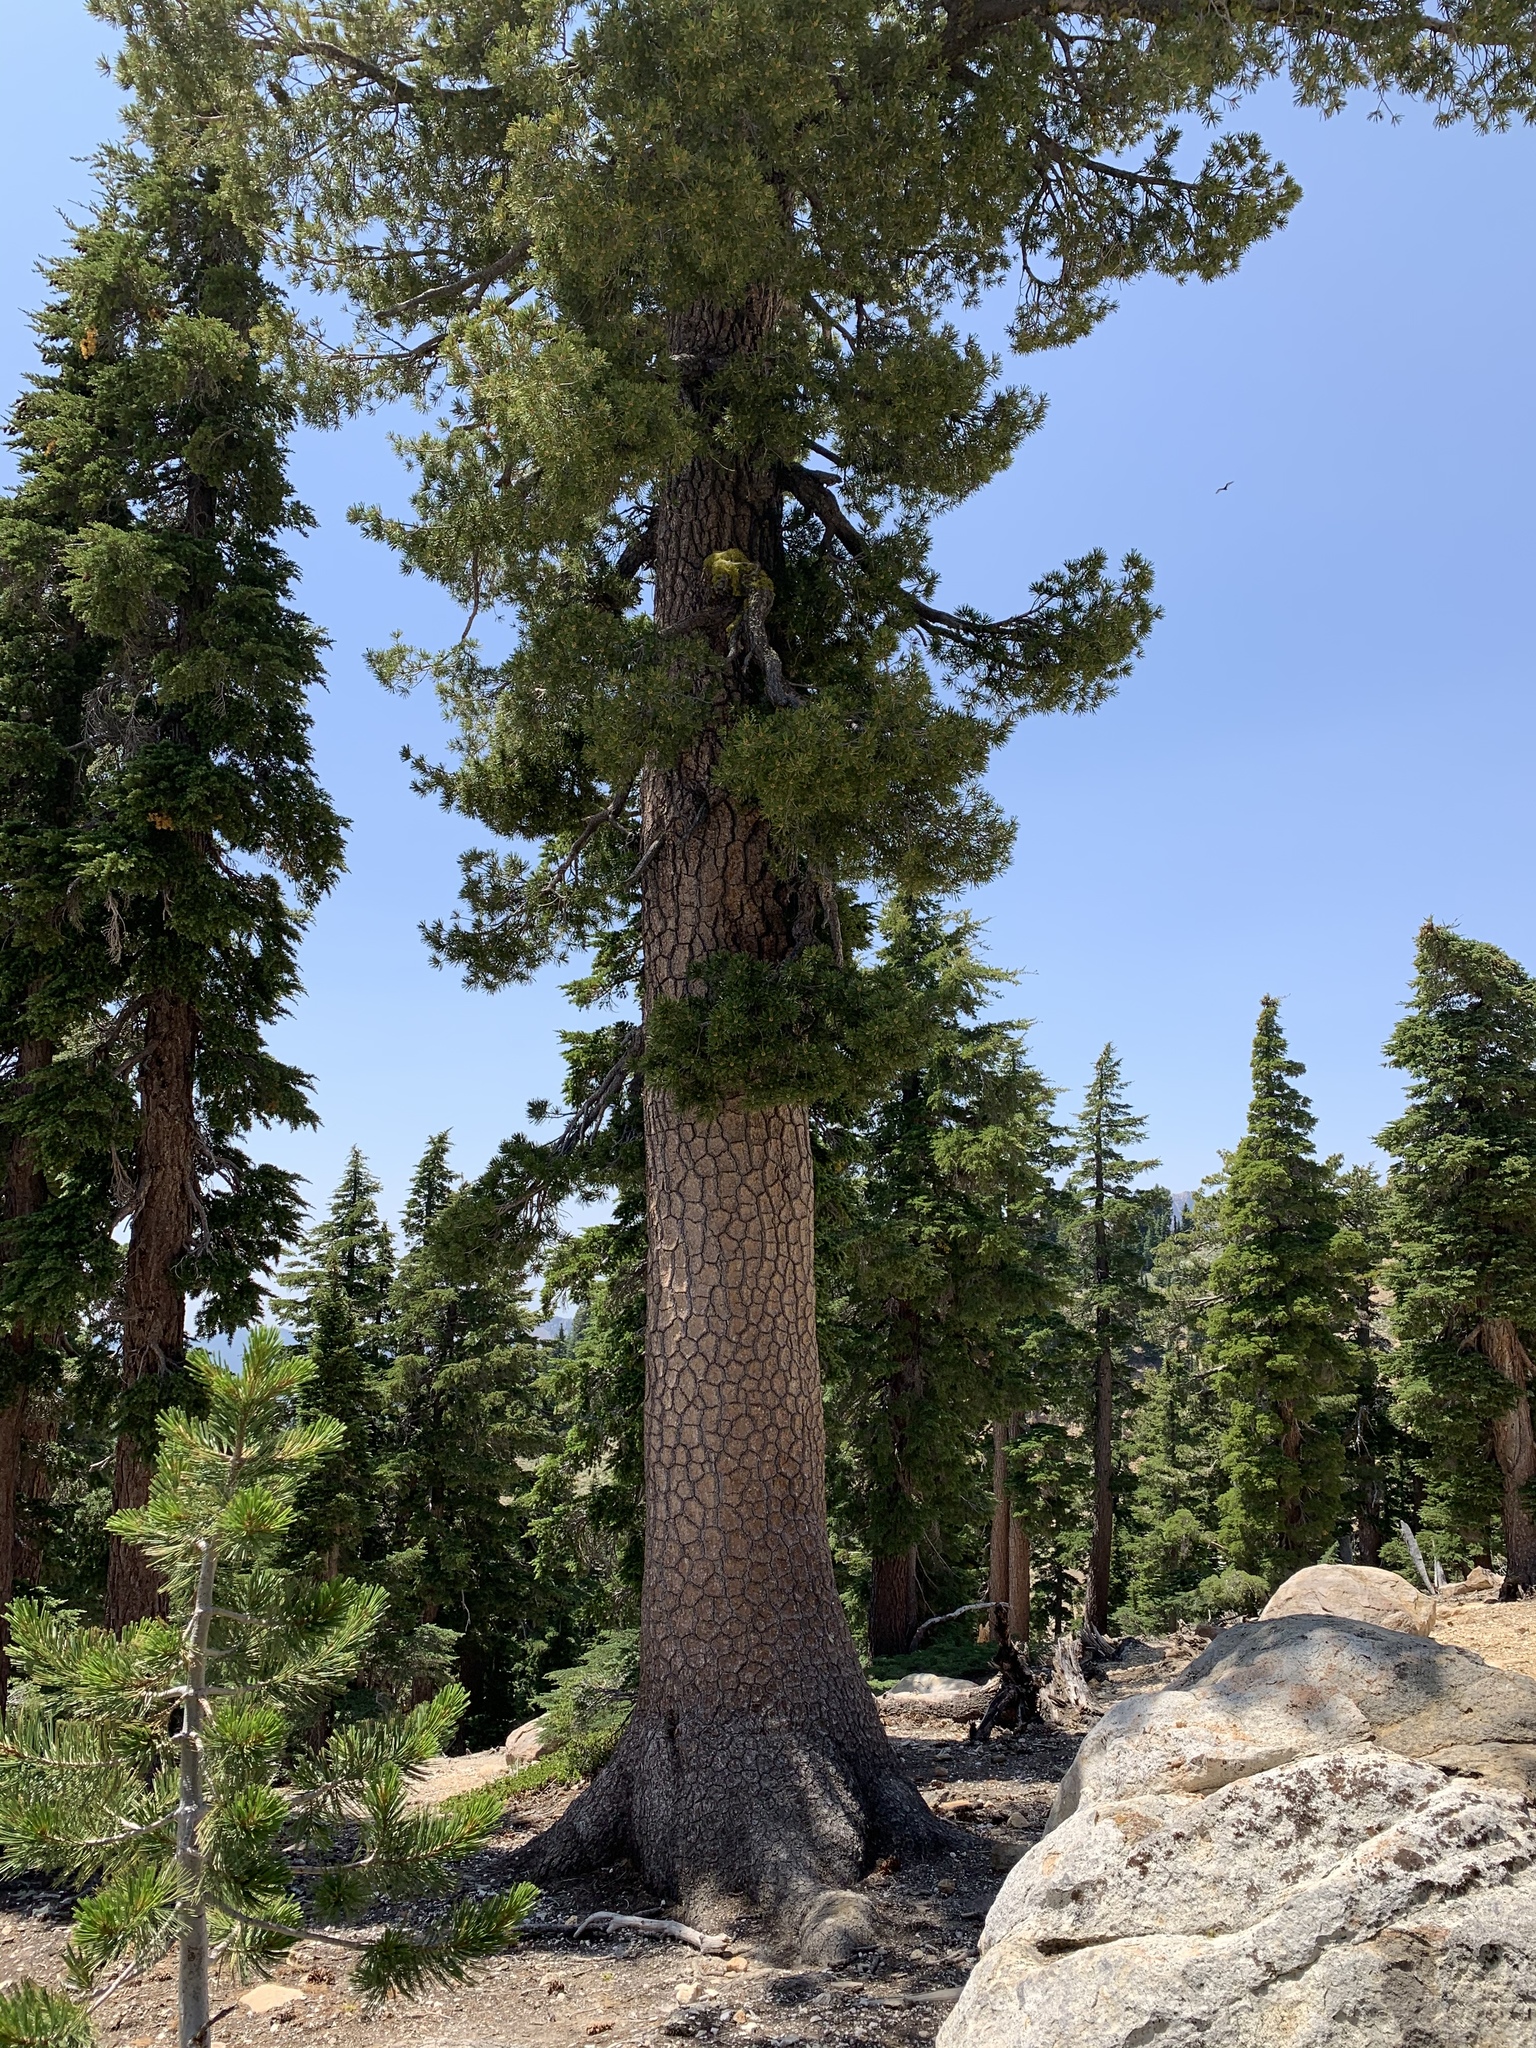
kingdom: Plantae
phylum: Tracheophyta
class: Pinopsida
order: Pinales
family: Pinaceae
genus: Pinus
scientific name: Pinus monticola
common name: Western white pine
